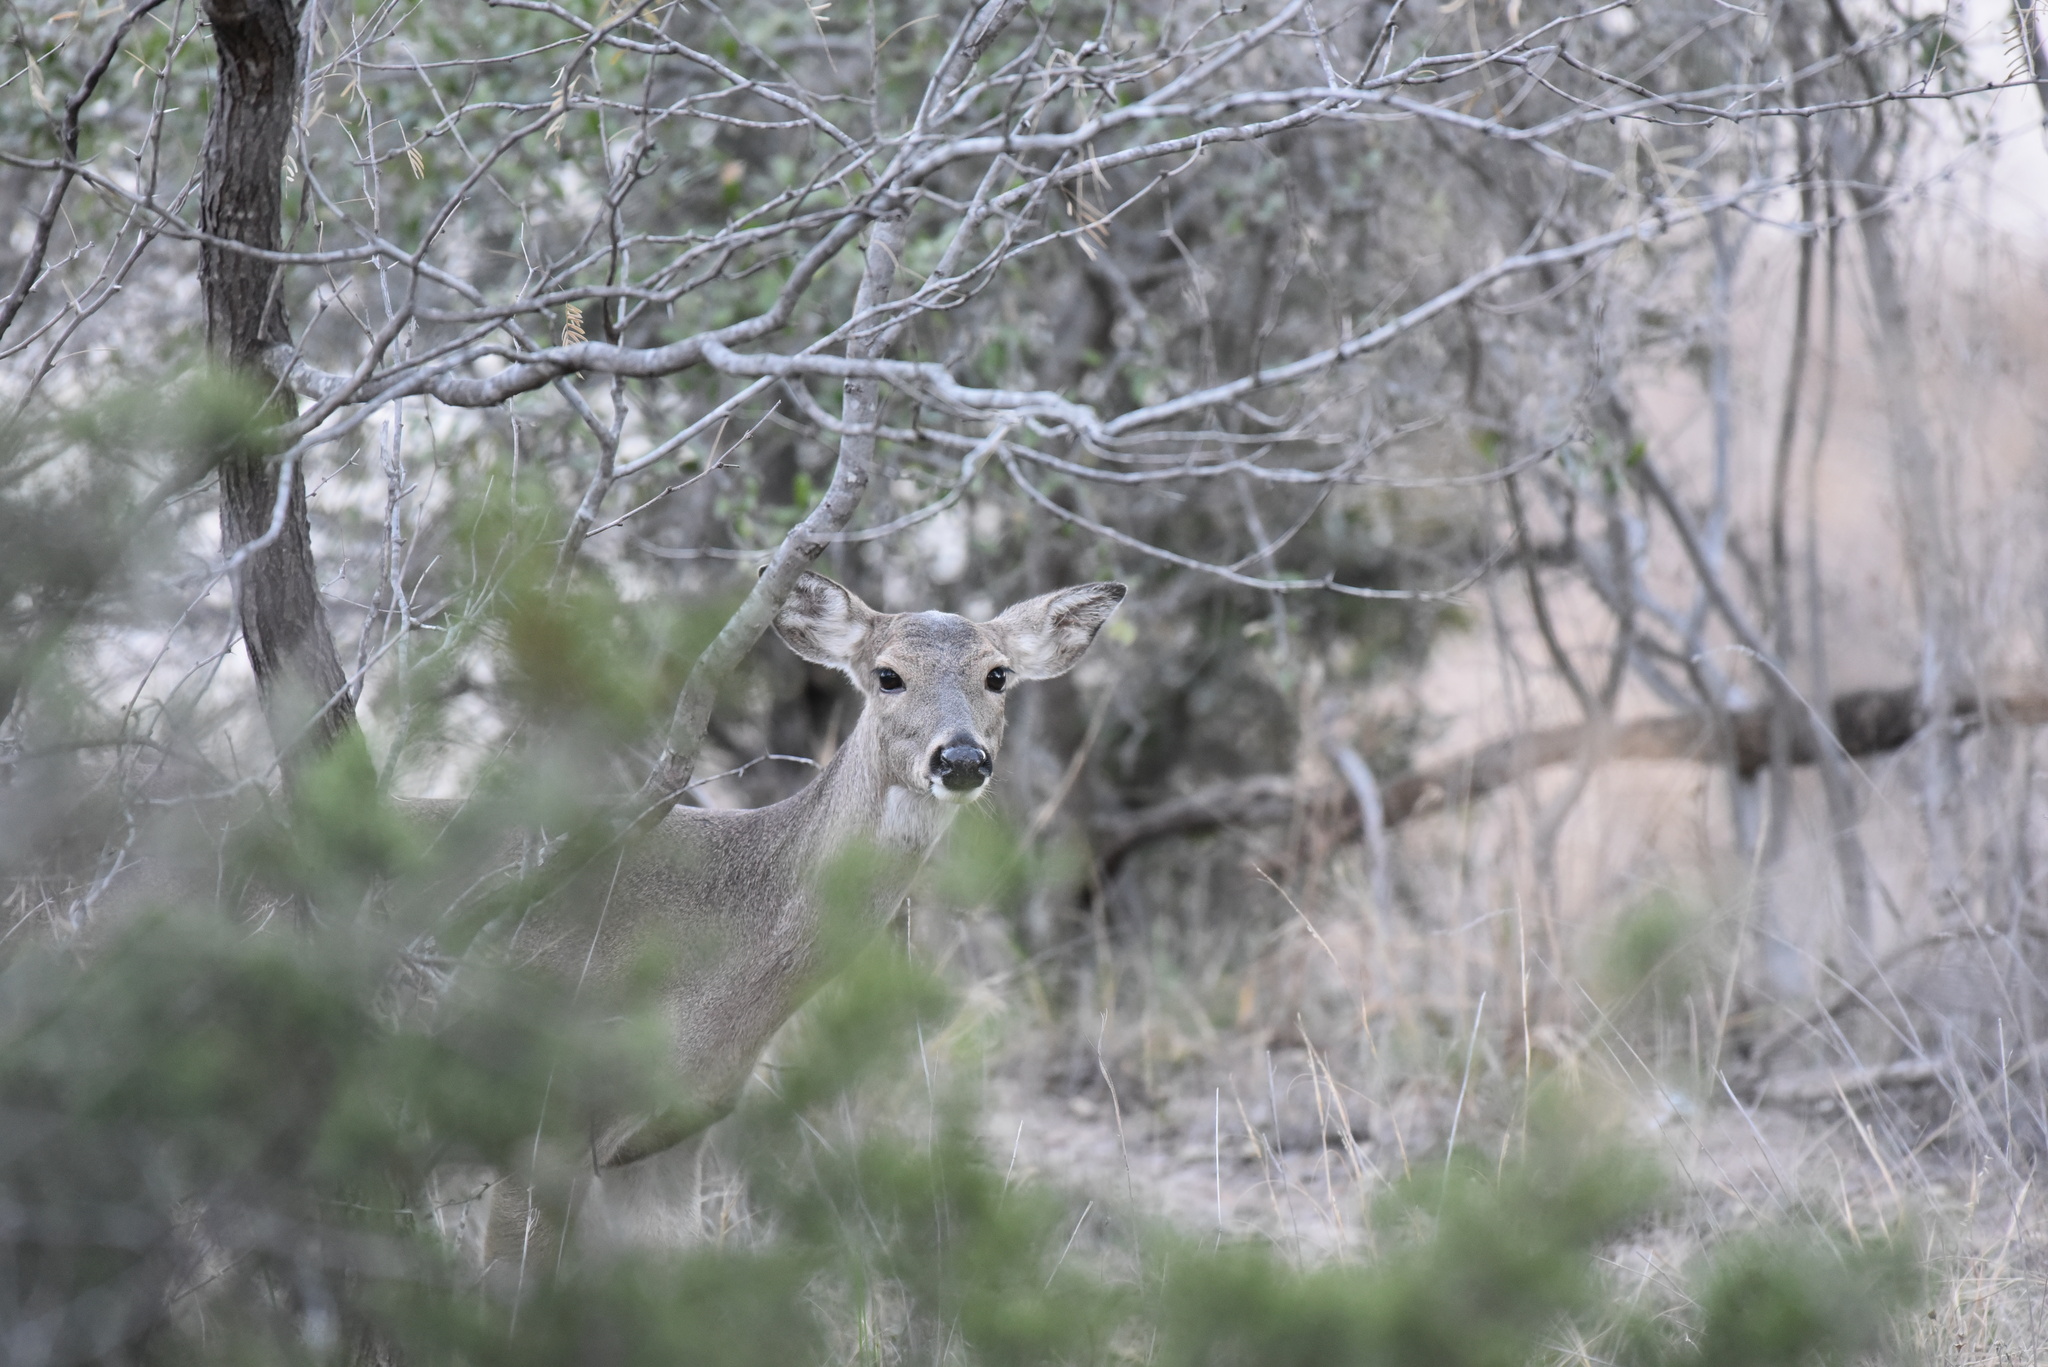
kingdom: Animalia
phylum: Chordata
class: Mammalia
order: Artiodactyla
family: Cervidae
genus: Odocoileus
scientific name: Odocoileus virginianus
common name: White-tailed deer
